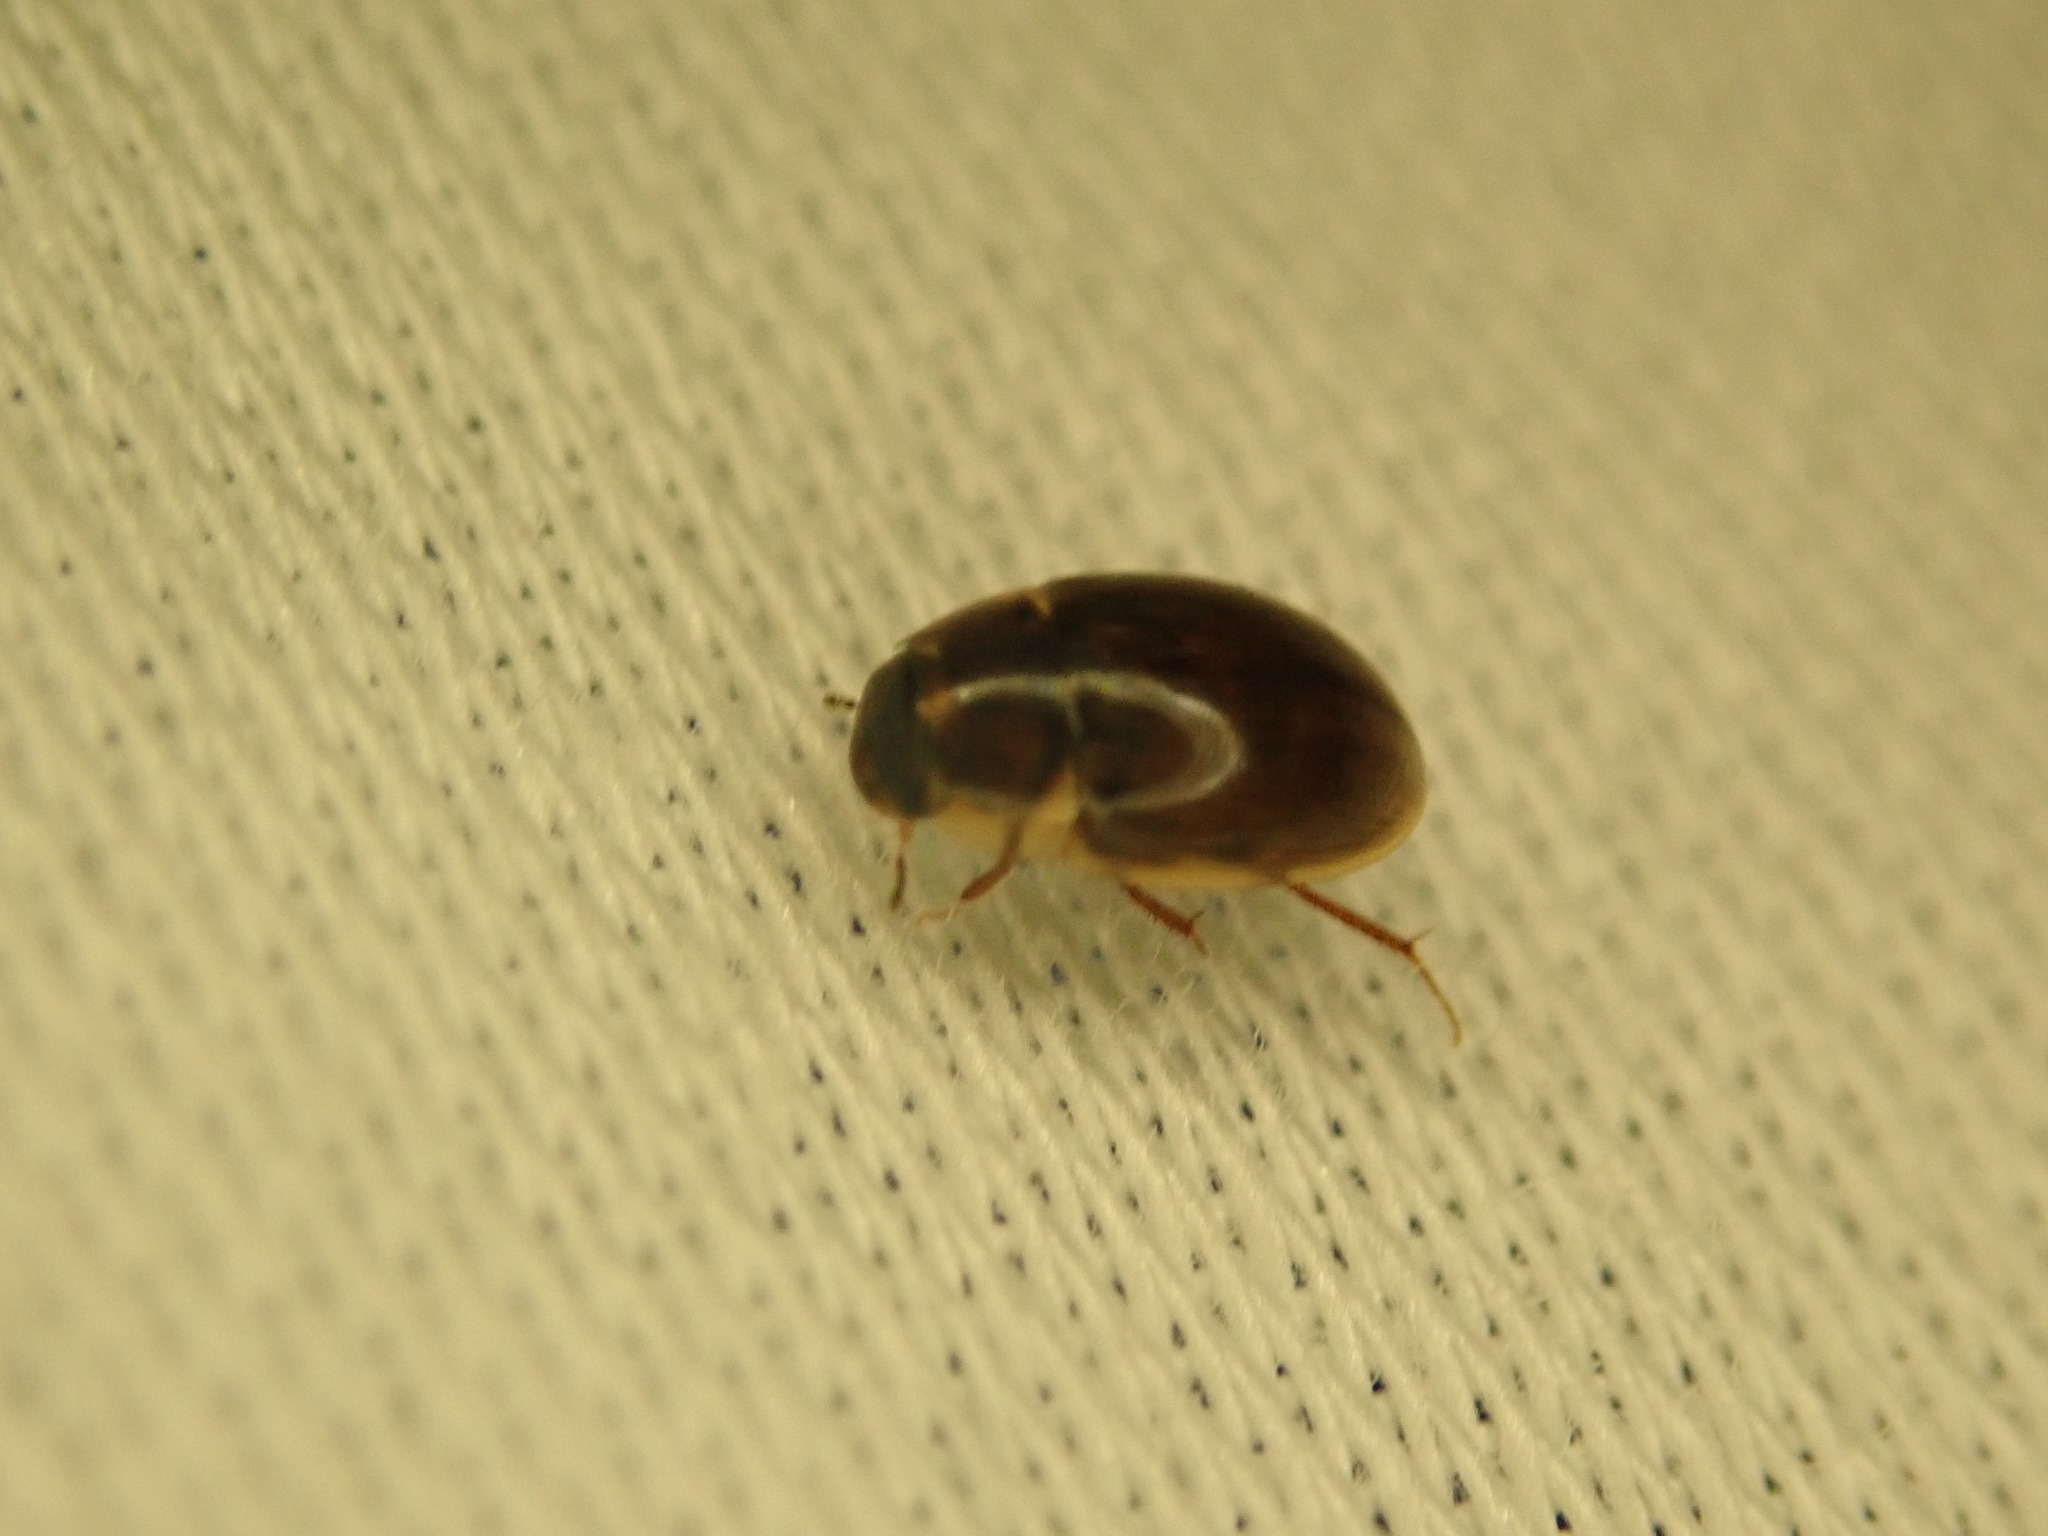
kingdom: Animalia
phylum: Arthropoda
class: Insecta
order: Coleoptera
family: Hydrophilidae
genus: Enochrus
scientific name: Enochrus
